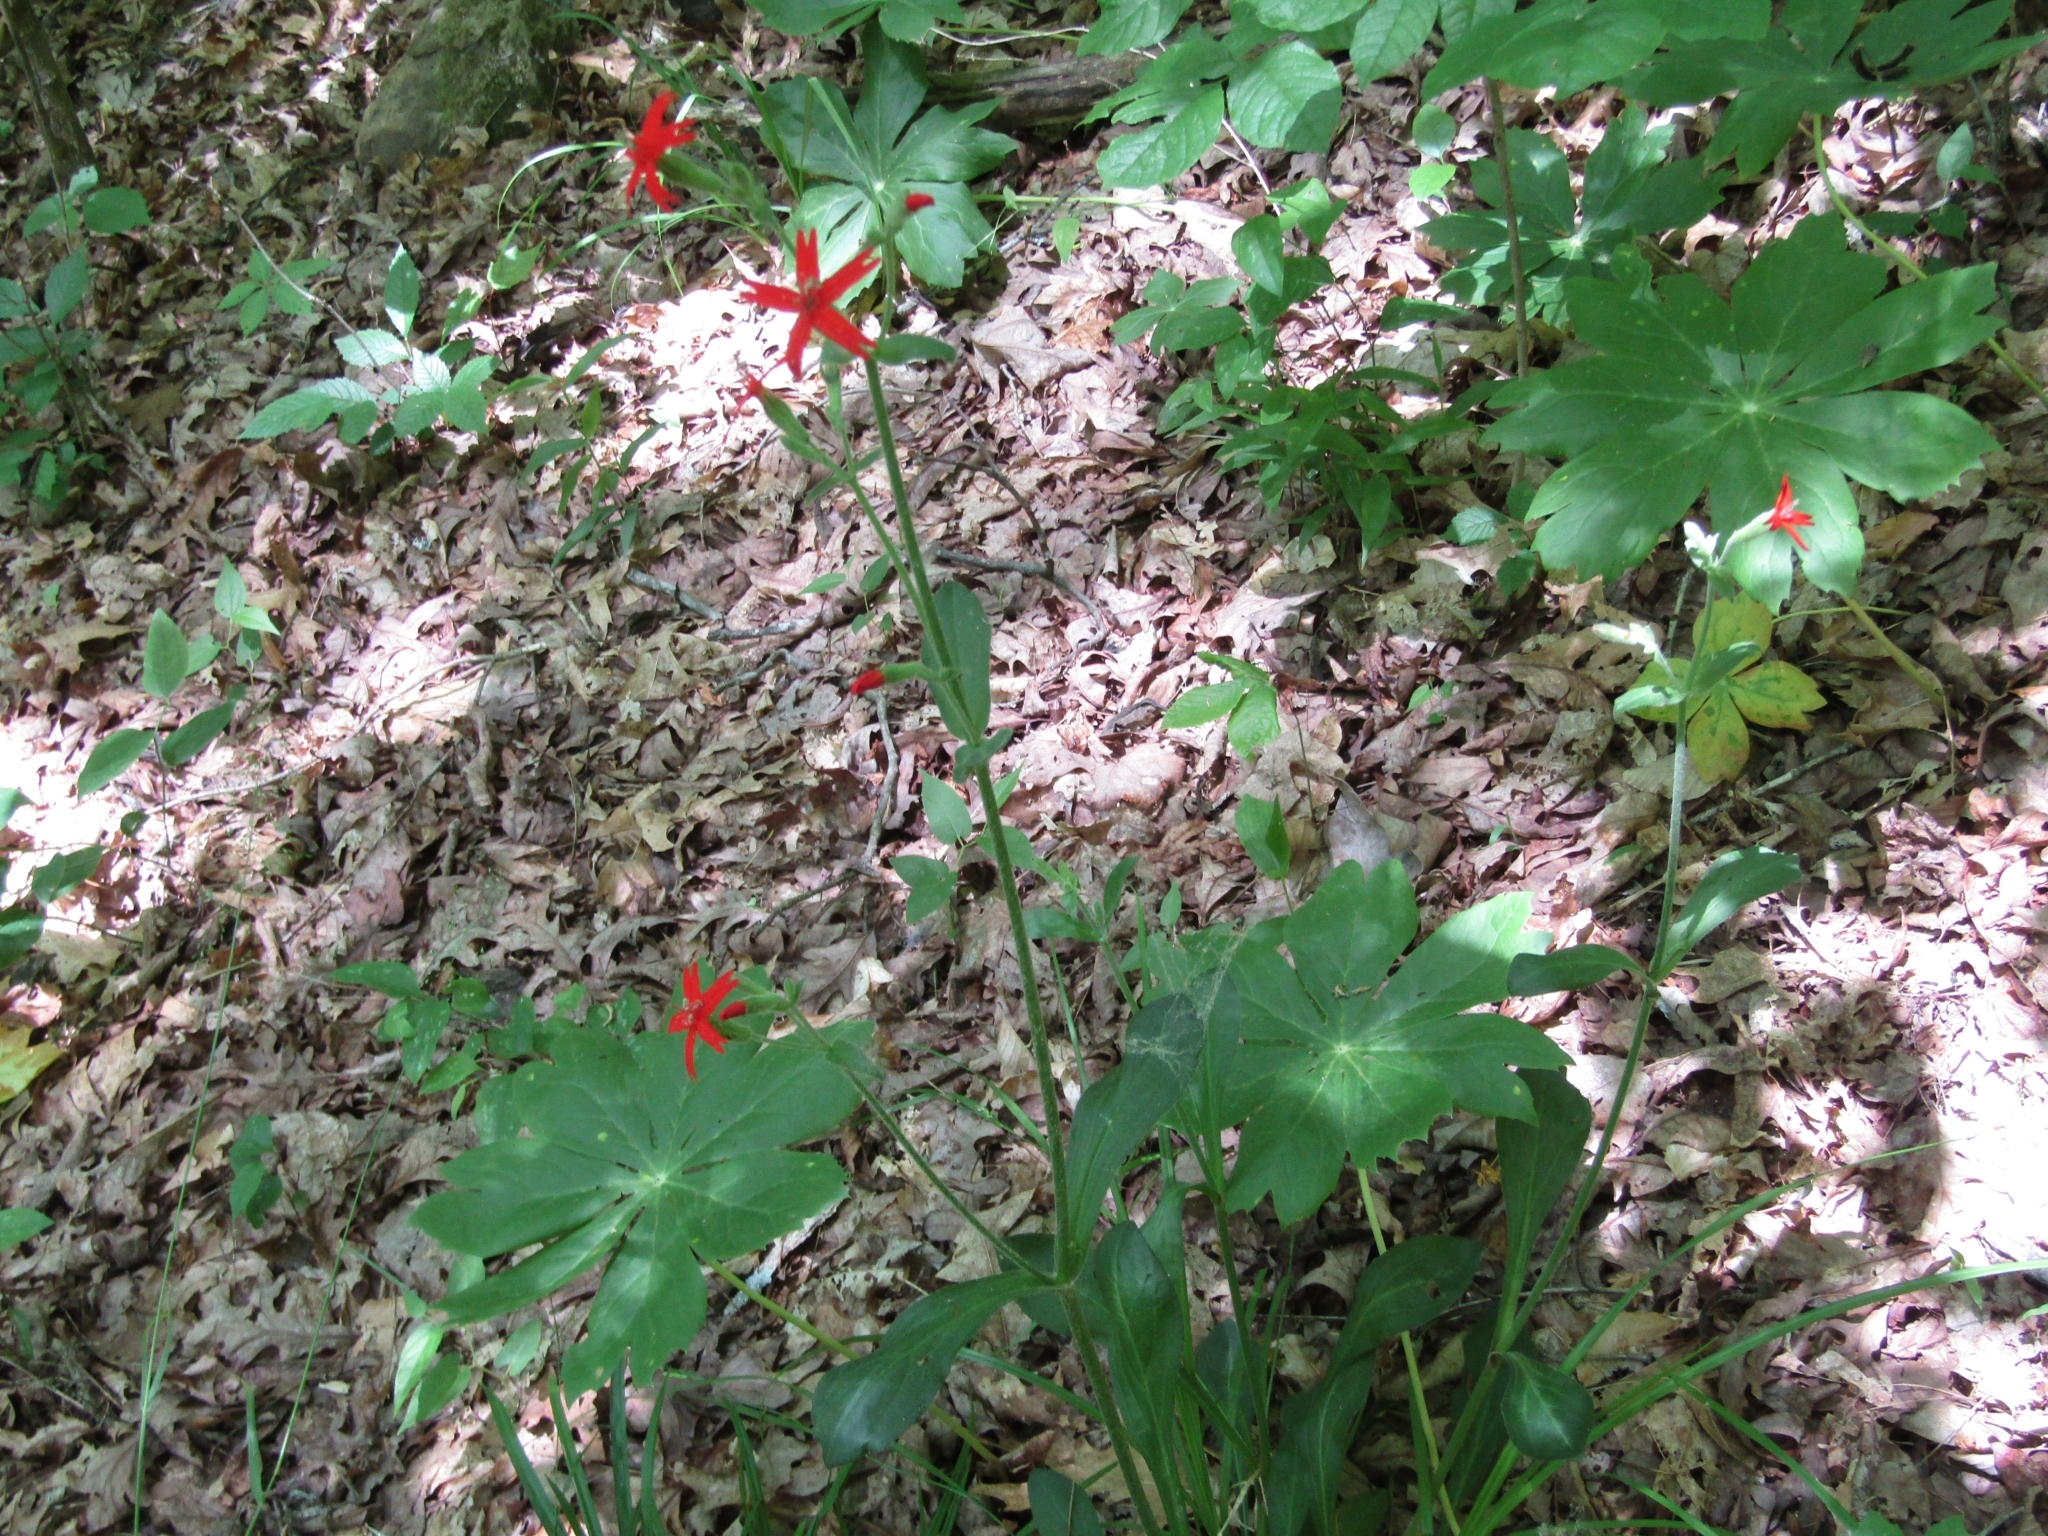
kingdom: Plantae
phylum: Tracheophyta
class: Magnoliopsida
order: Caryophyllales
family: Caryophyllaceae
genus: Silene
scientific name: Silene virginica
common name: Fire-pink
